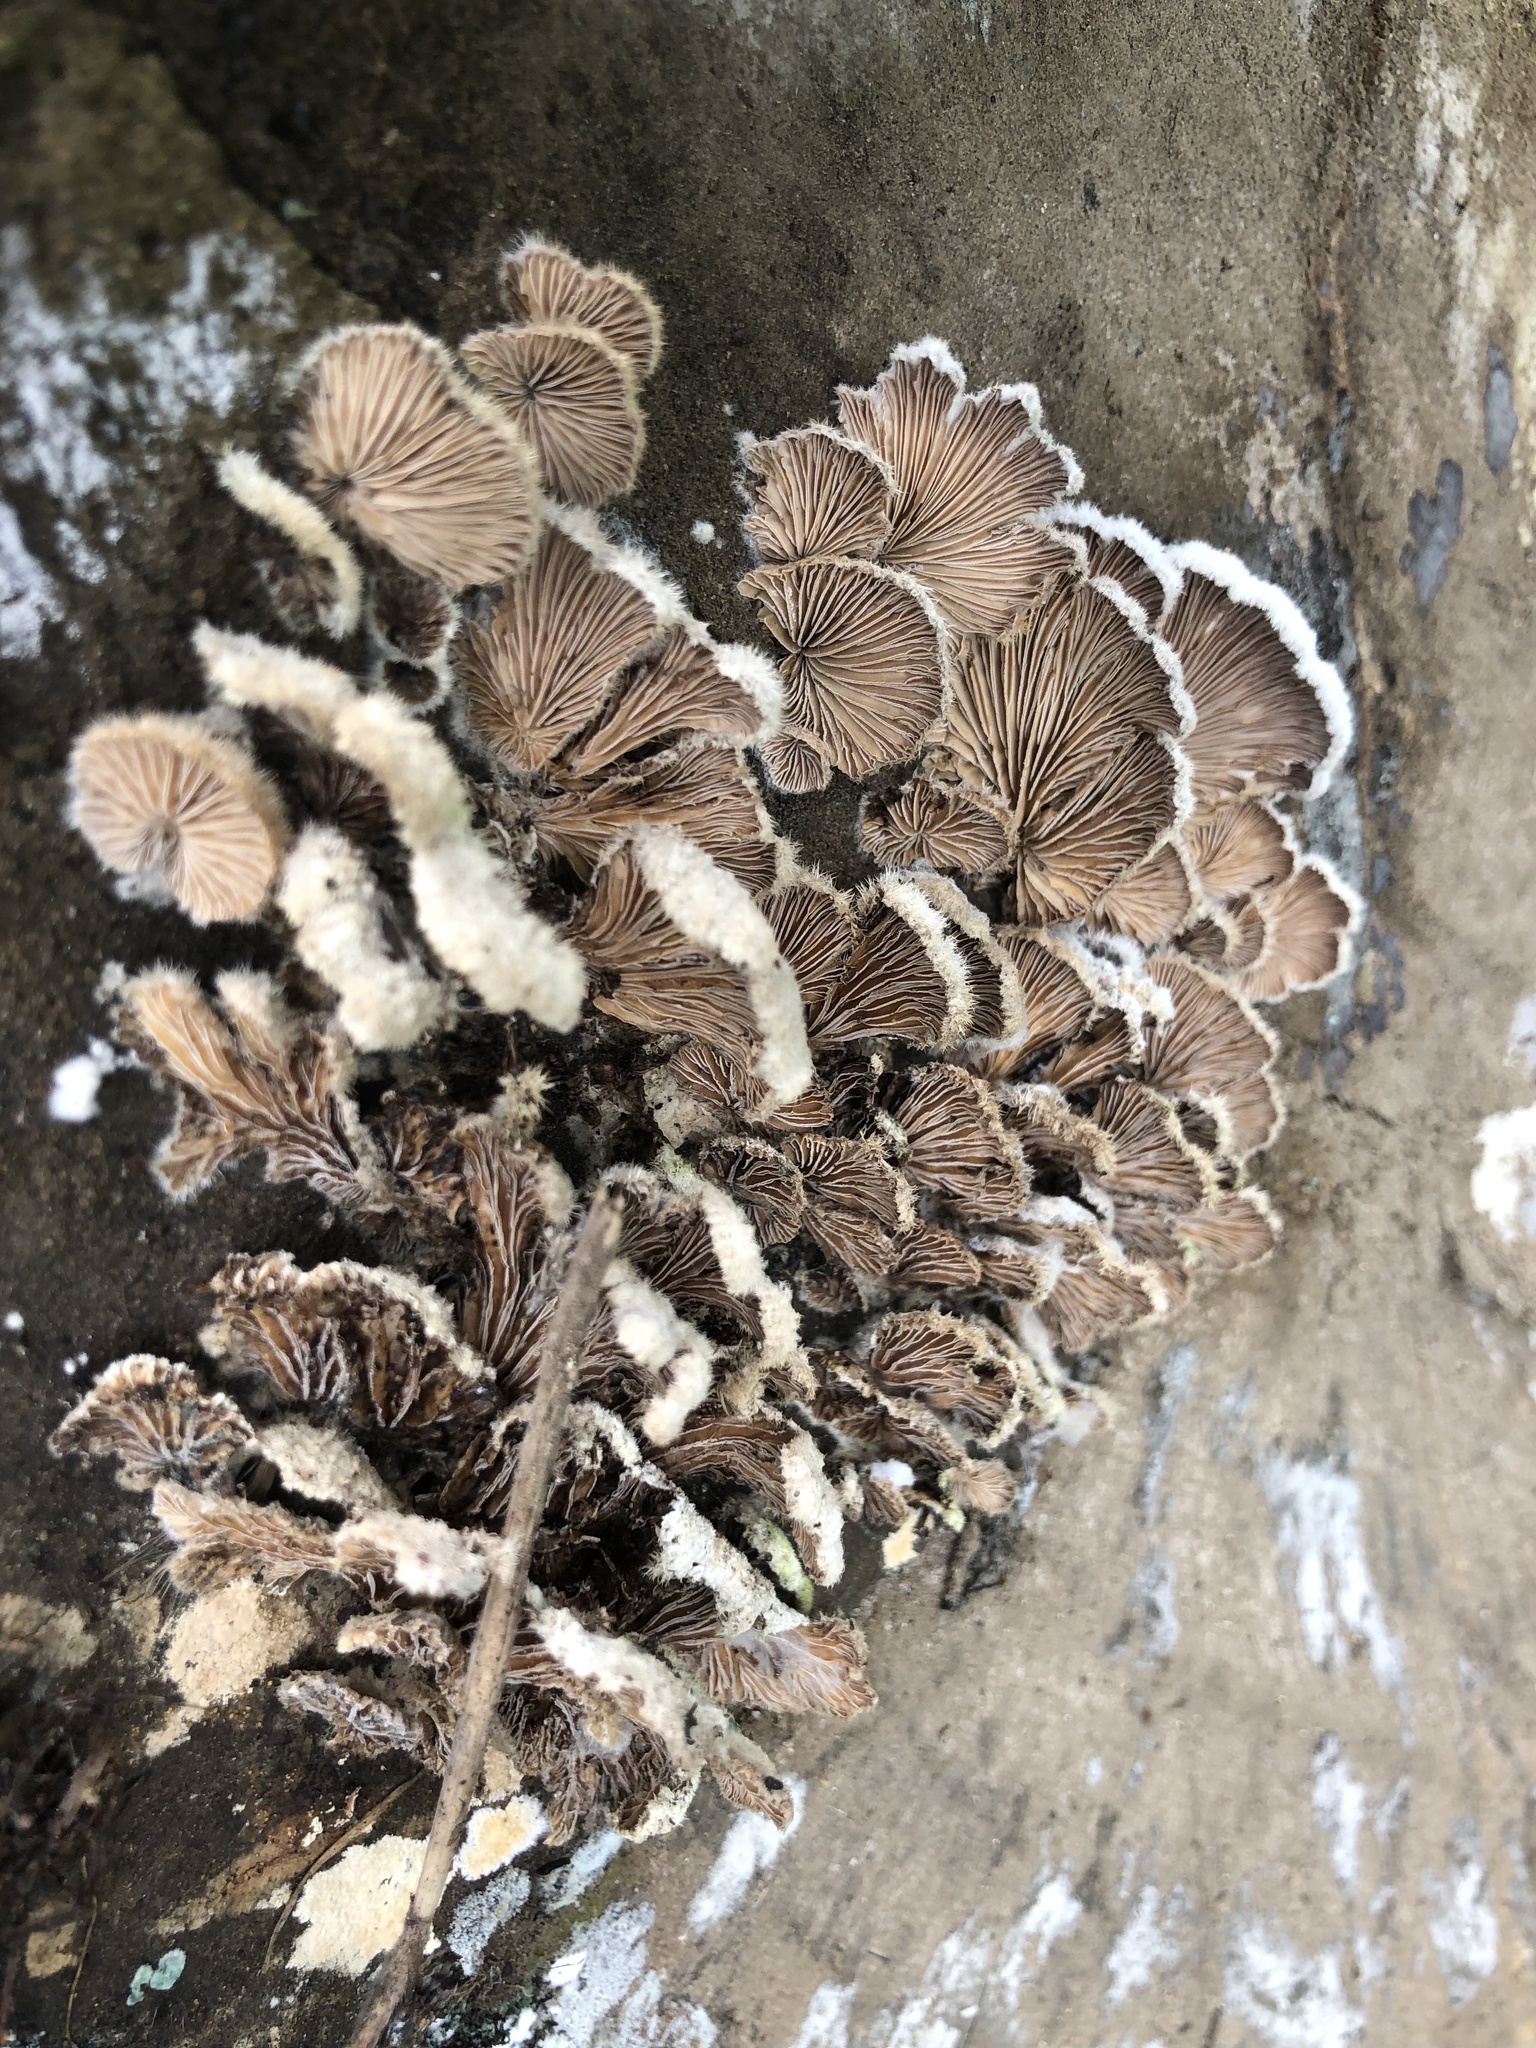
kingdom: Fungi
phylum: Basidiomycota
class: Agaricomycetes
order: Agaricales
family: Schizophyllaceae
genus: Schizophyllum
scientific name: Schizophyllum commune
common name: Common porecrust
